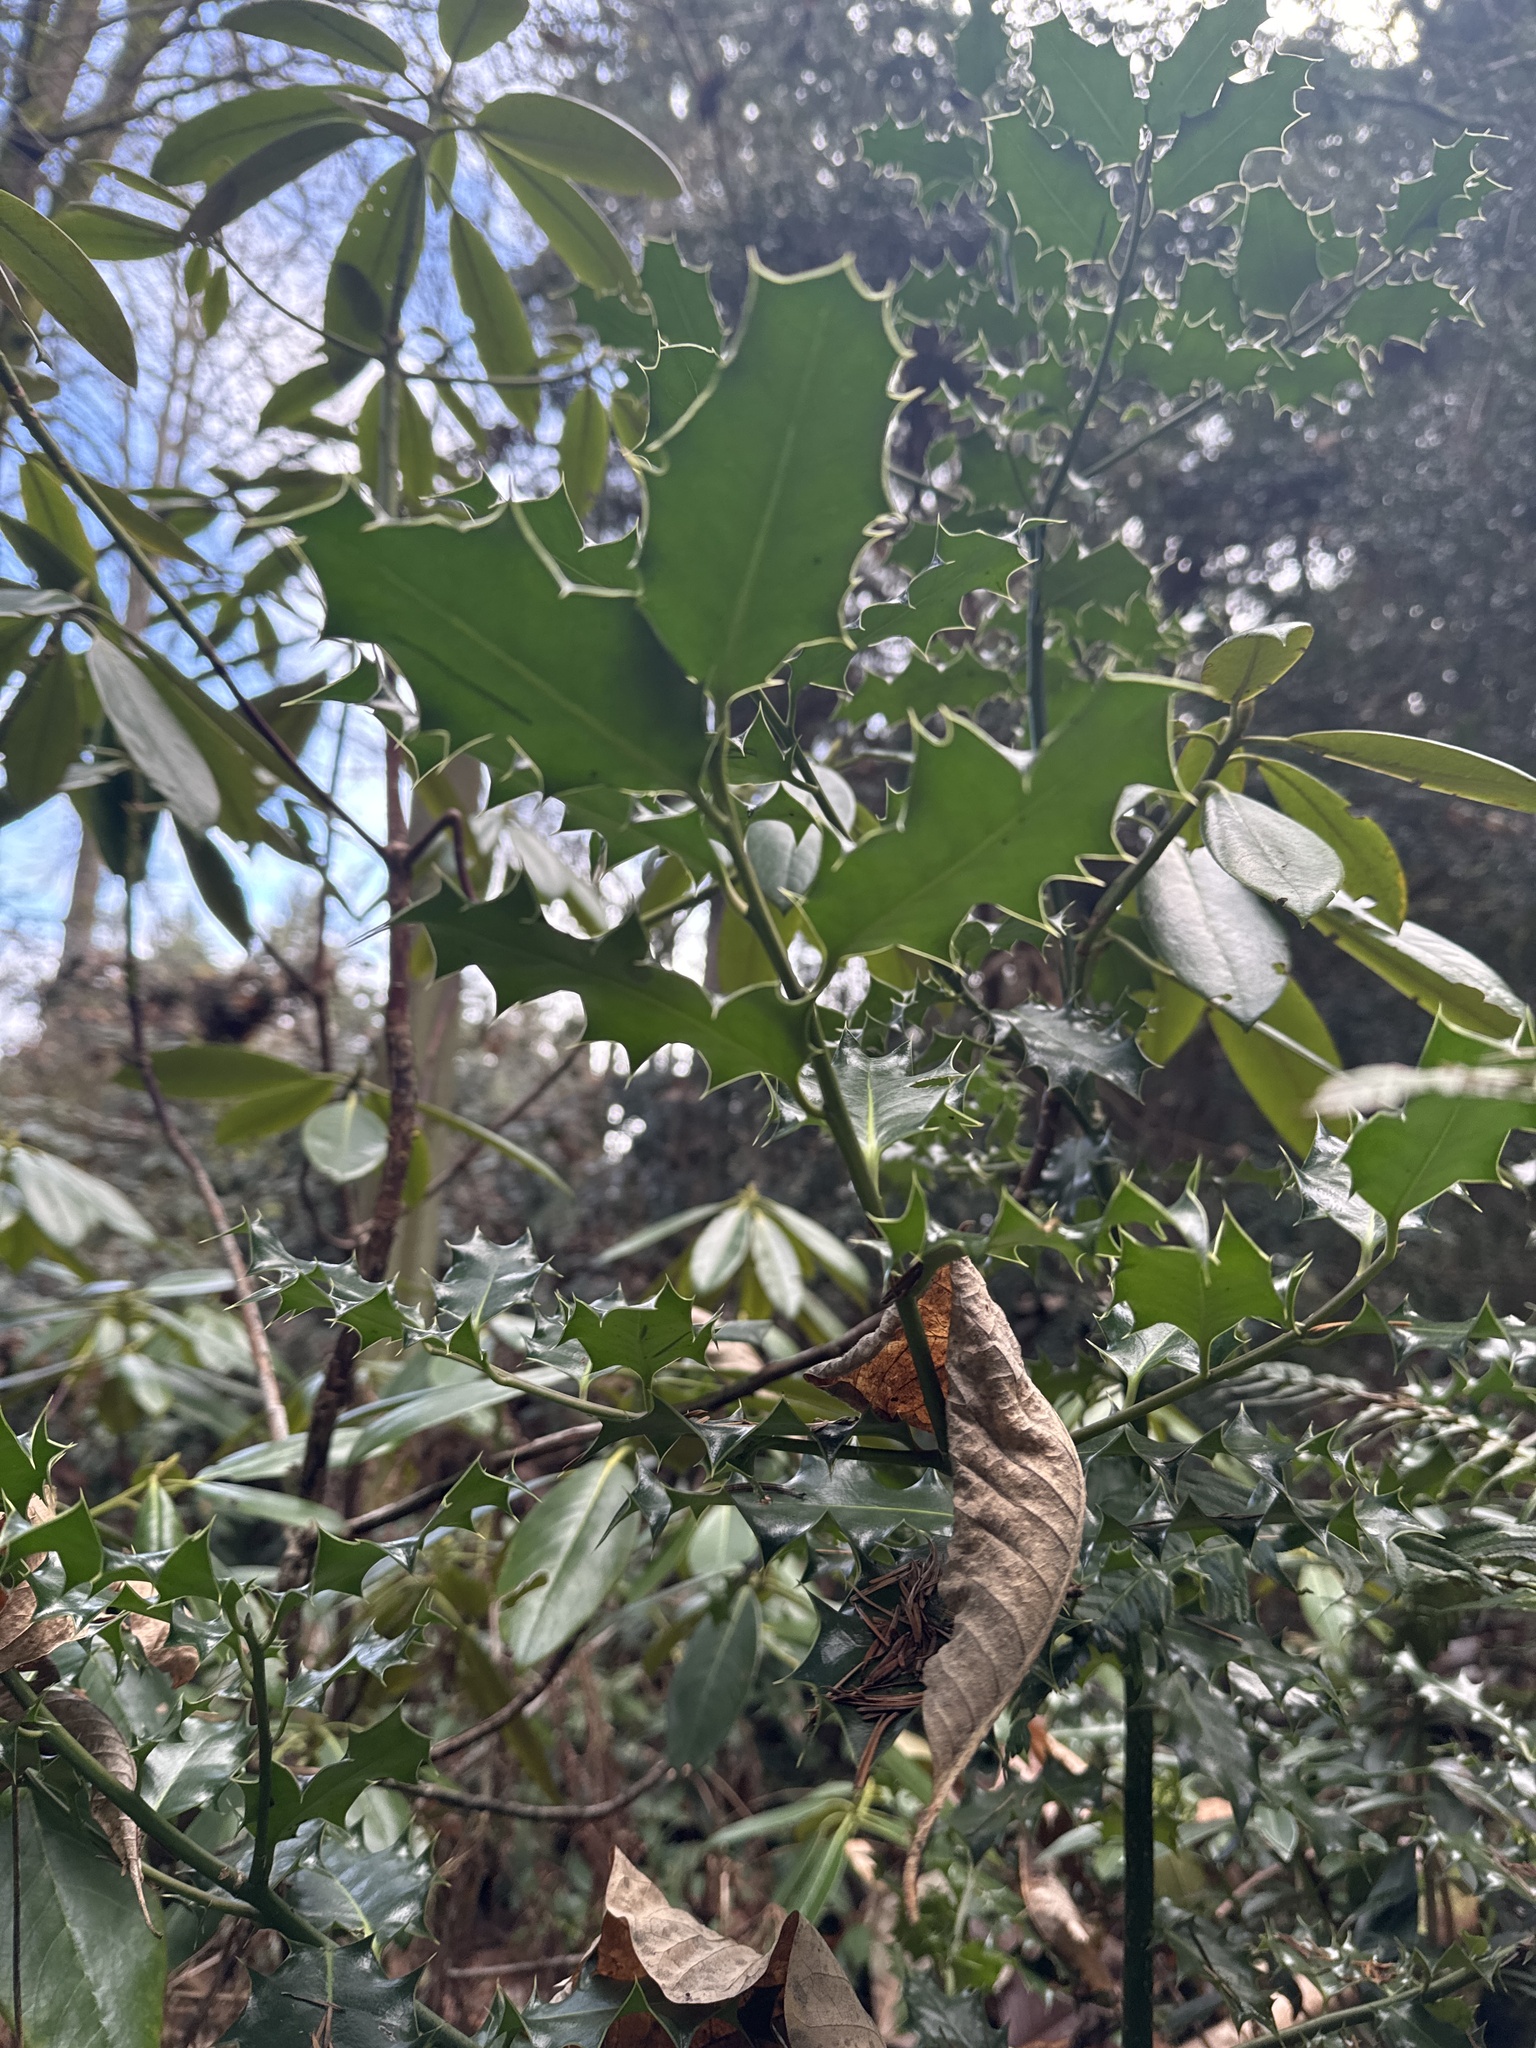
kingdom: Plantae
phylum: Tracheophyta
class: Magnoliopsida
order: Aquifoliales
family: Aquifoliaceae
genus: Ilex
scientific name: Ilex aquifolium
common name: English holly
